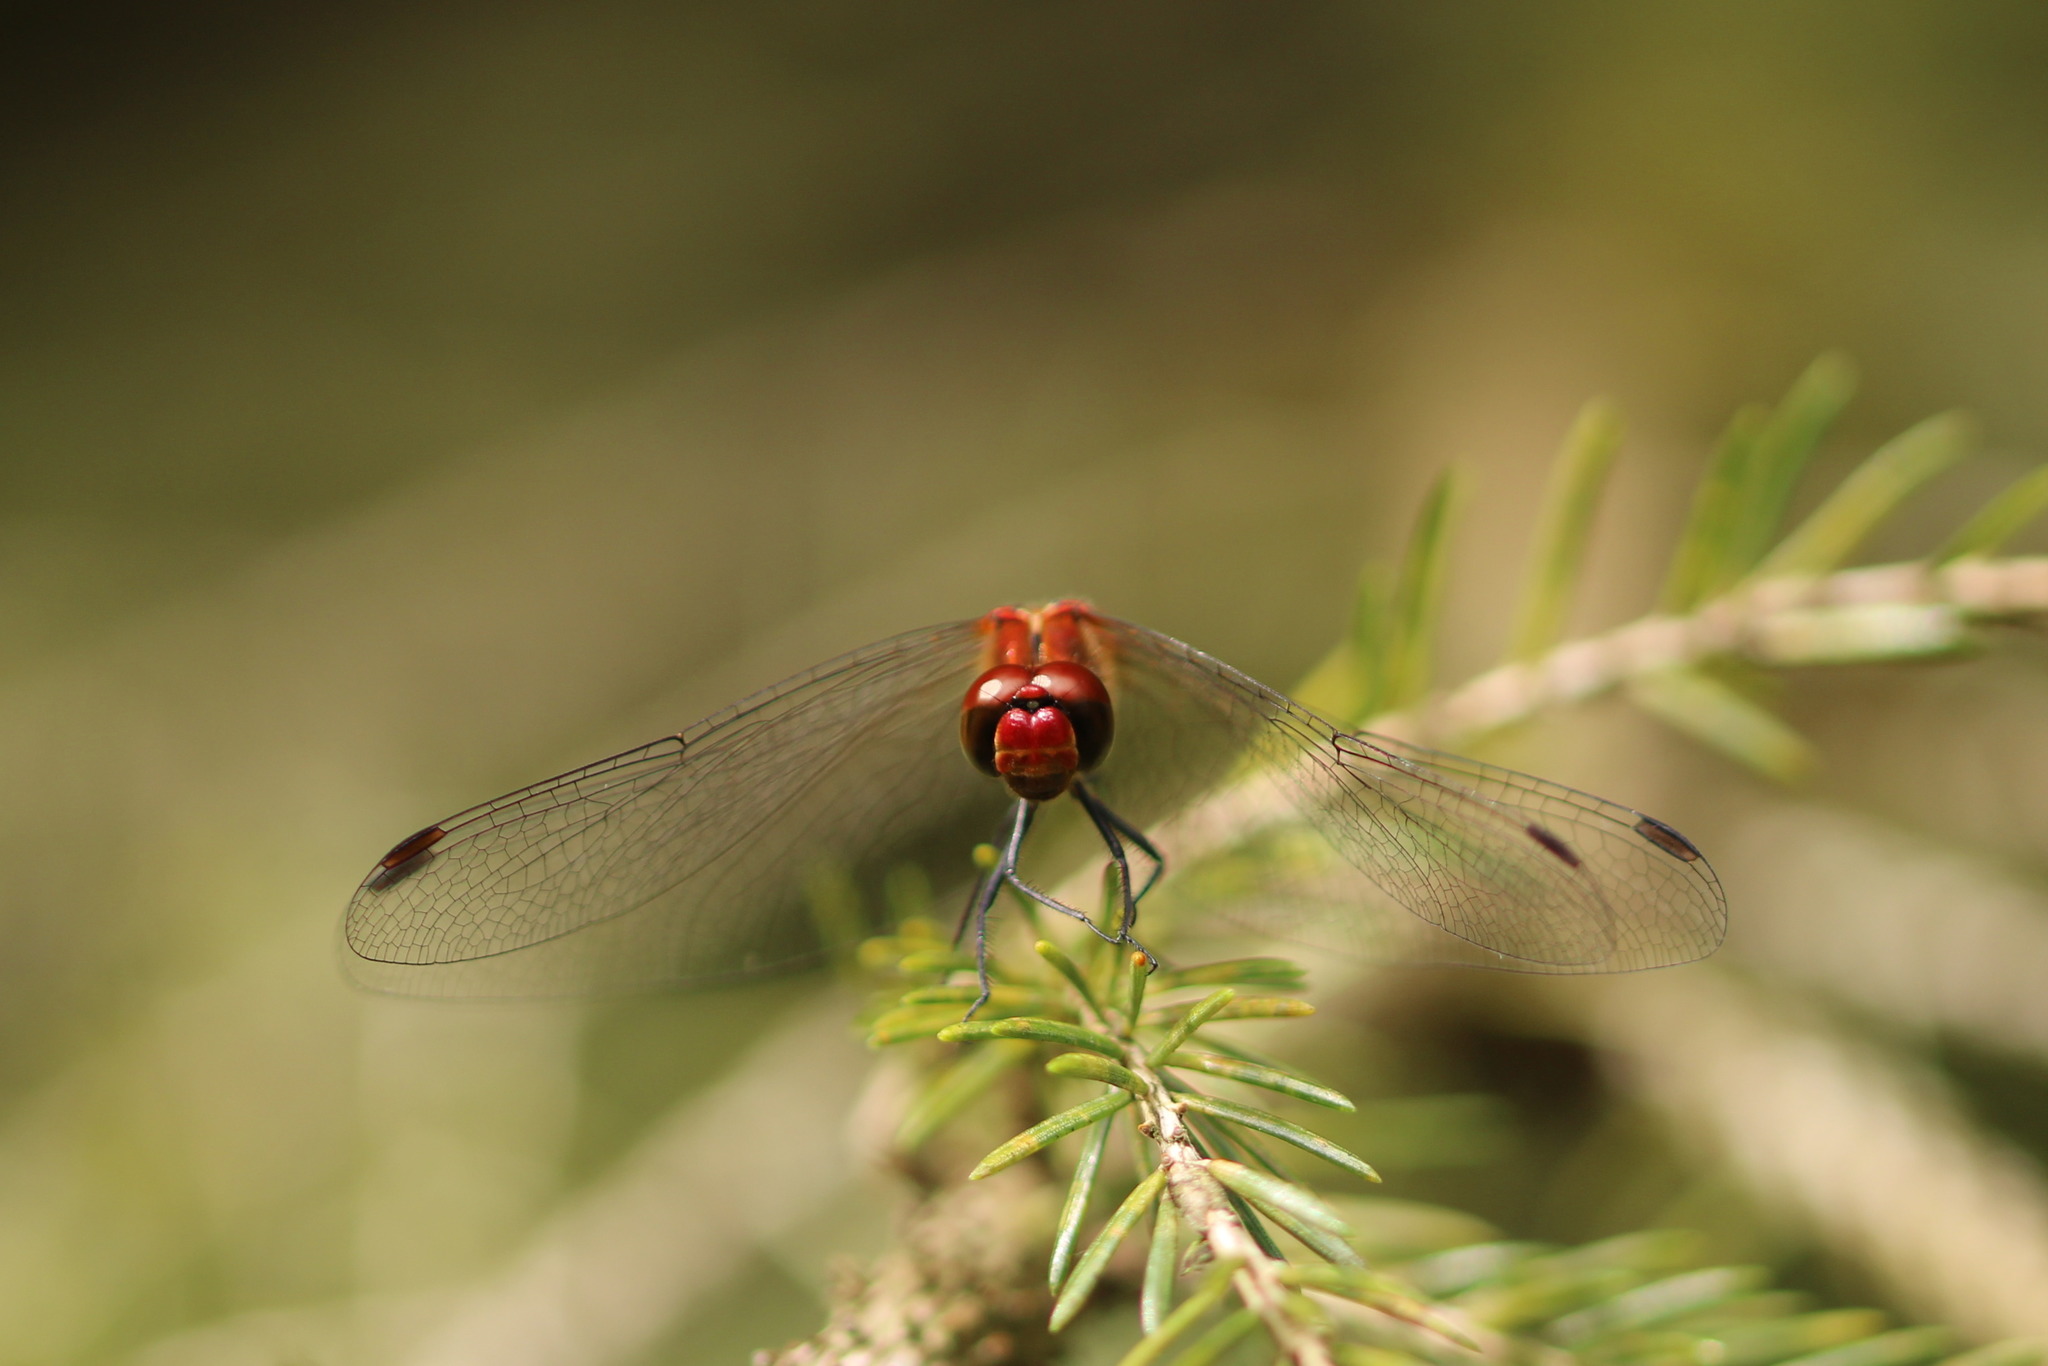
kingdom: Animalia
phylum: Arthropoda
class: Insecta
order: Odonata
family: Libellulidae
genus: Sympetrum
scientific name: Sympetrum sanguineum
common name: Ruddy darter
